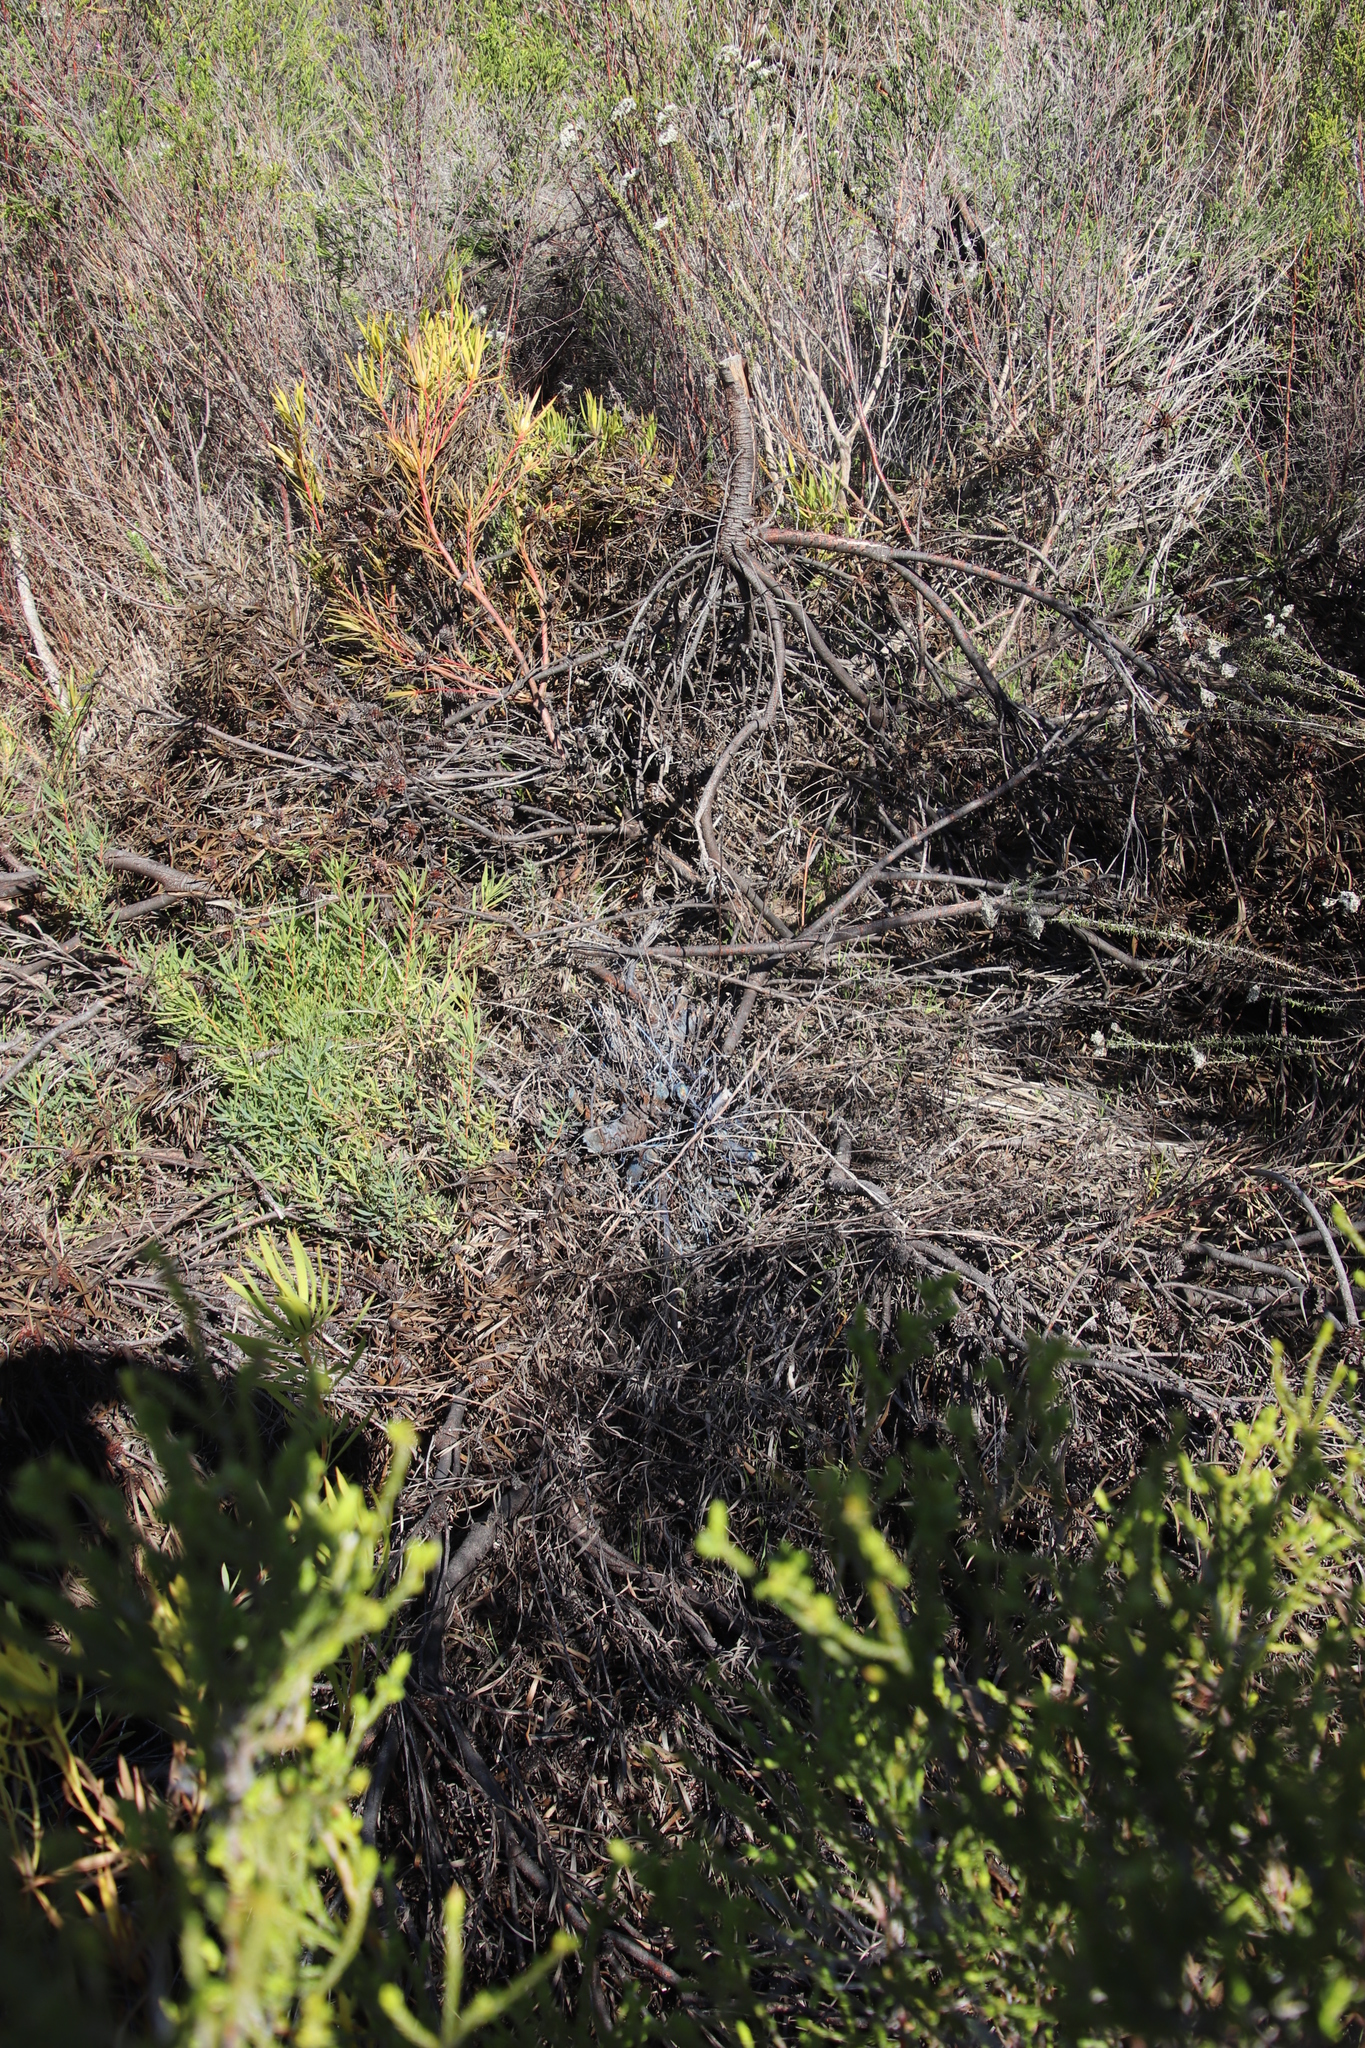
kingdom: Plantae
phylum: Tracheophyta
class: Magnoliopsida
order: Proteales
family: Proteaceae
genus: Leucadendron
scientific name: Leucadendron salignum
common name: Common sunshine conebush
